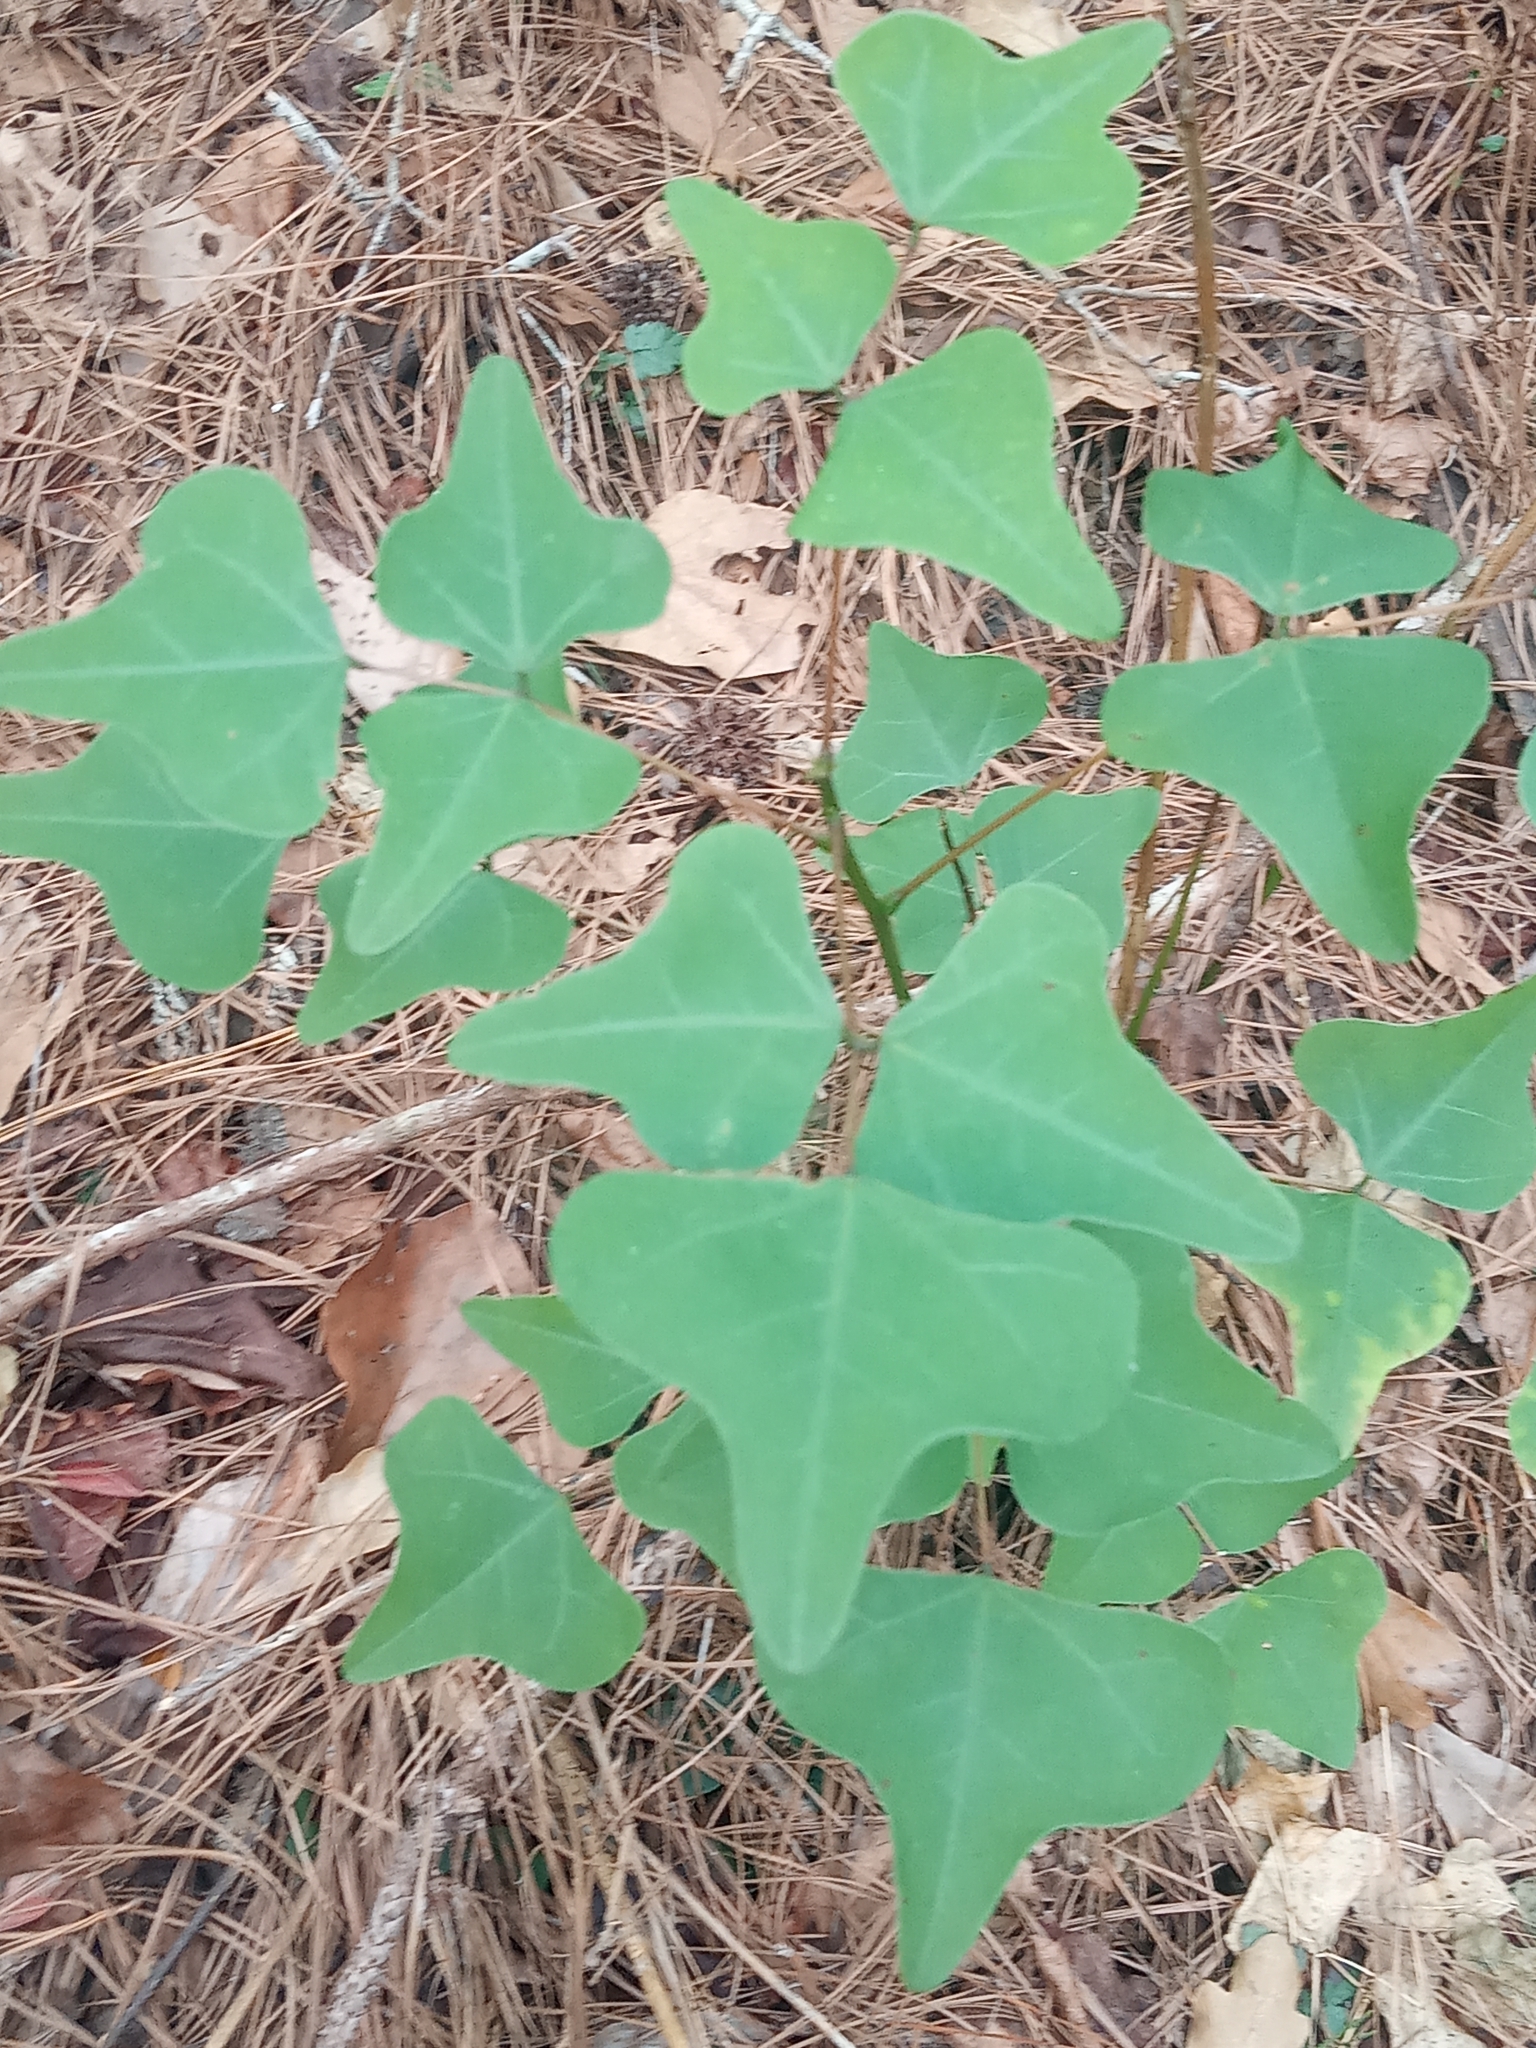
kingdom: Plantae
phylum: Tracheophyta
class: Magnoliopsida
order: Fabales
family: Fabaceae
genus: Erythrina
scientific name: Erythrina herbacea
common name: Coral-bean
